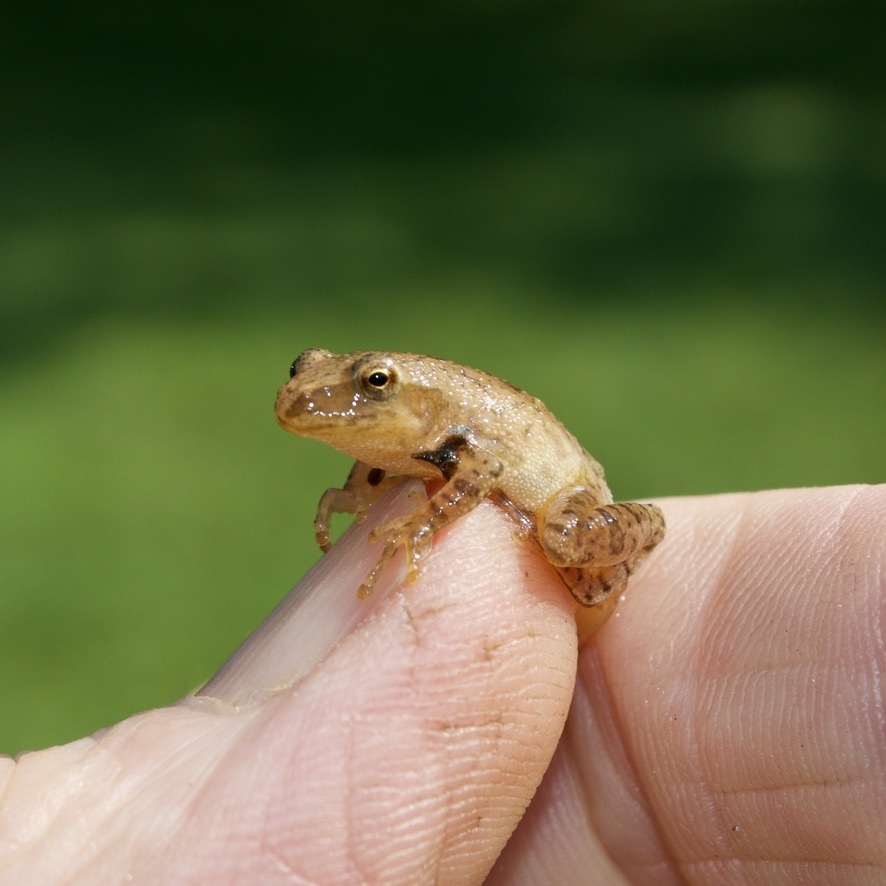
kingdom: Animalia
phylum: Chordata
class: Amphibia
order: Anura
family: Hylidae
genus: Pseudacris
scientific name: Pseudacris crucifer
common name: Spring peeper
